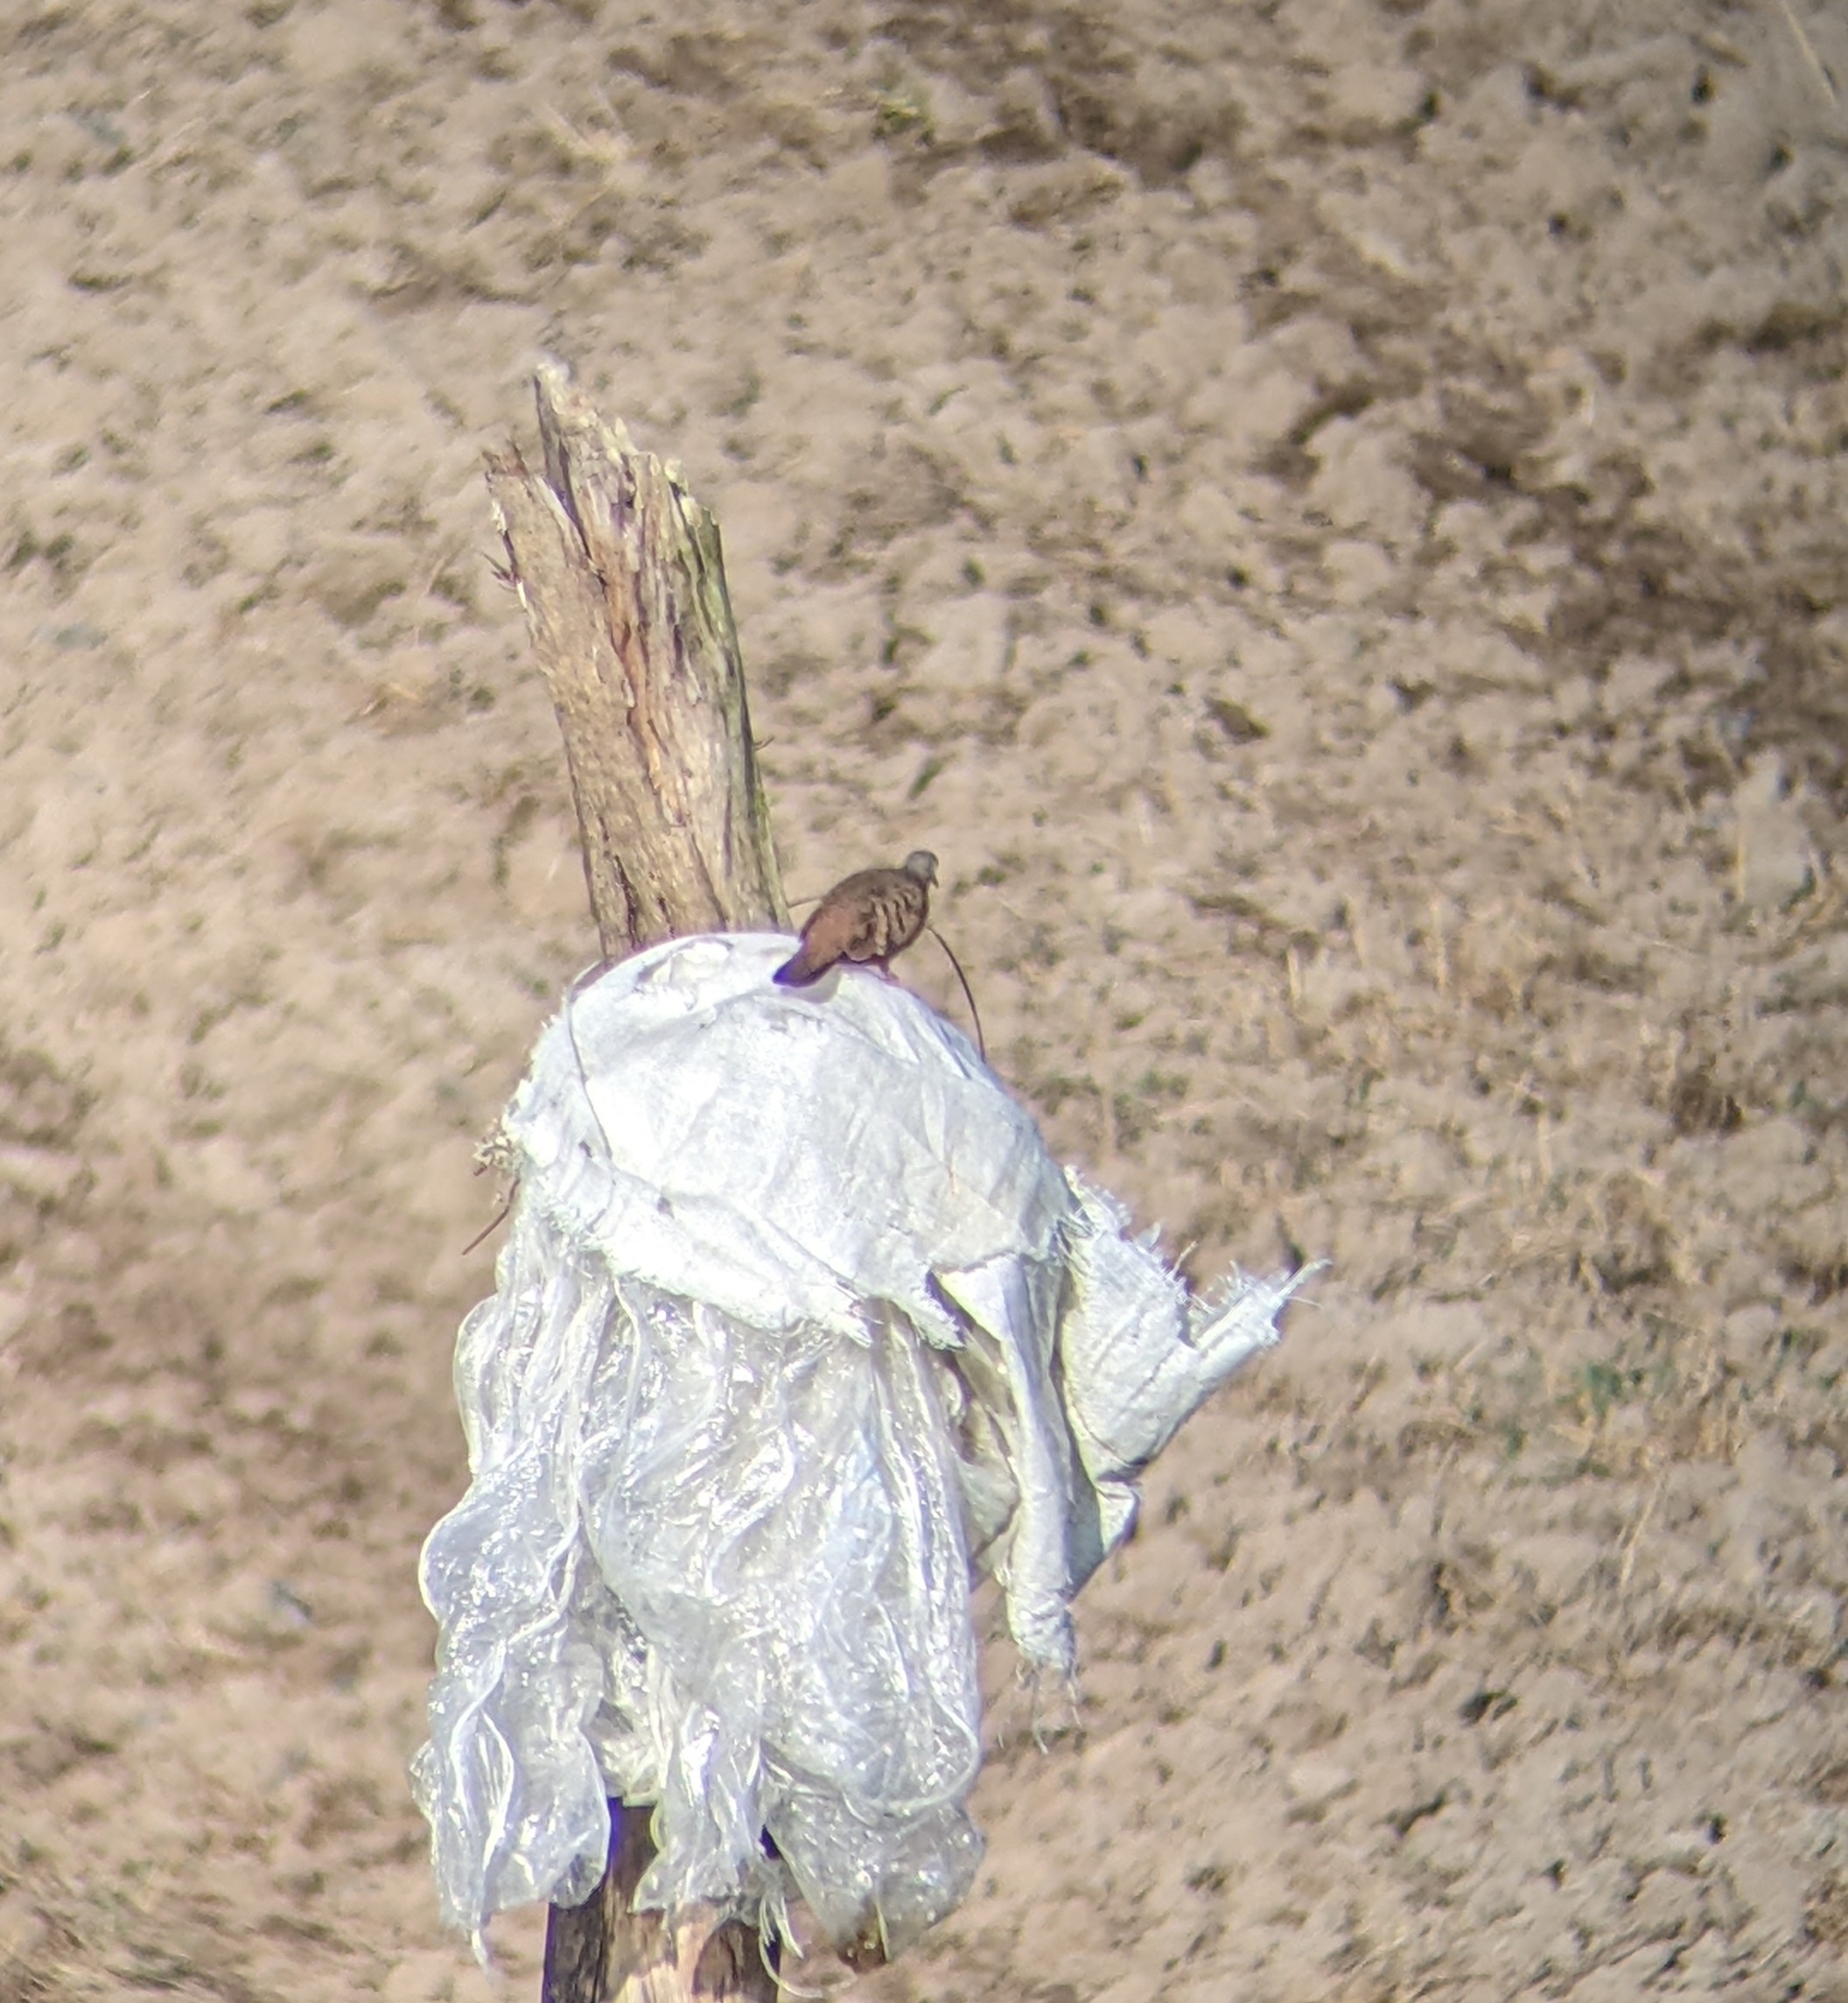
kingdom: Animalia
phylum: Chordata
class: Aves
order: Columbiformes
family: Columbidae
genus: Columbina
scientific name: Columbina talpacoti
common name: Ruddy ground dove
